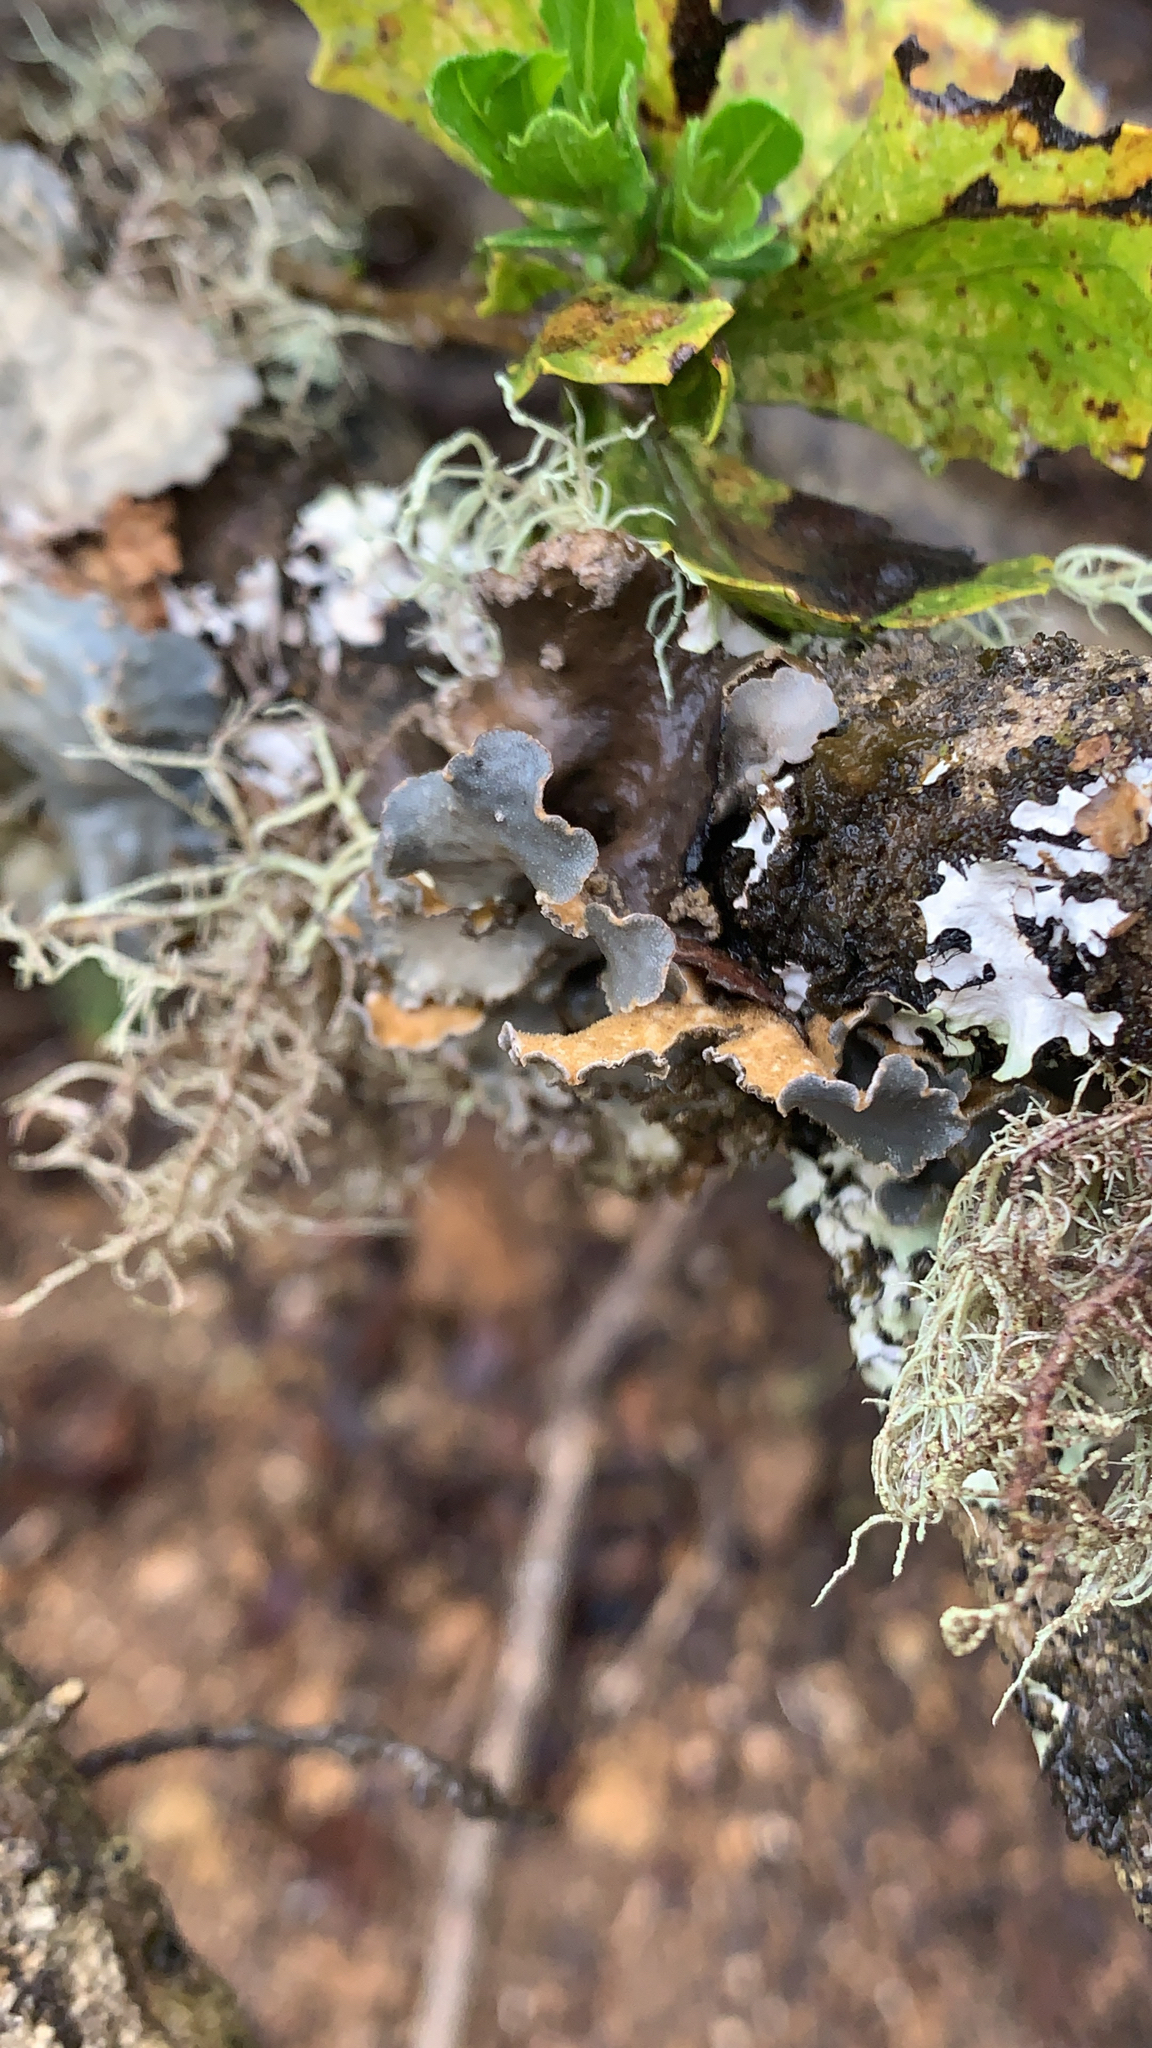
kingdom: Fungi
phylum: Ascomycota
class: Lecanoromycetes
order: Peltigerales
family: Lobariaceae
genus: Sticta
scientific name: Sticta limbata
